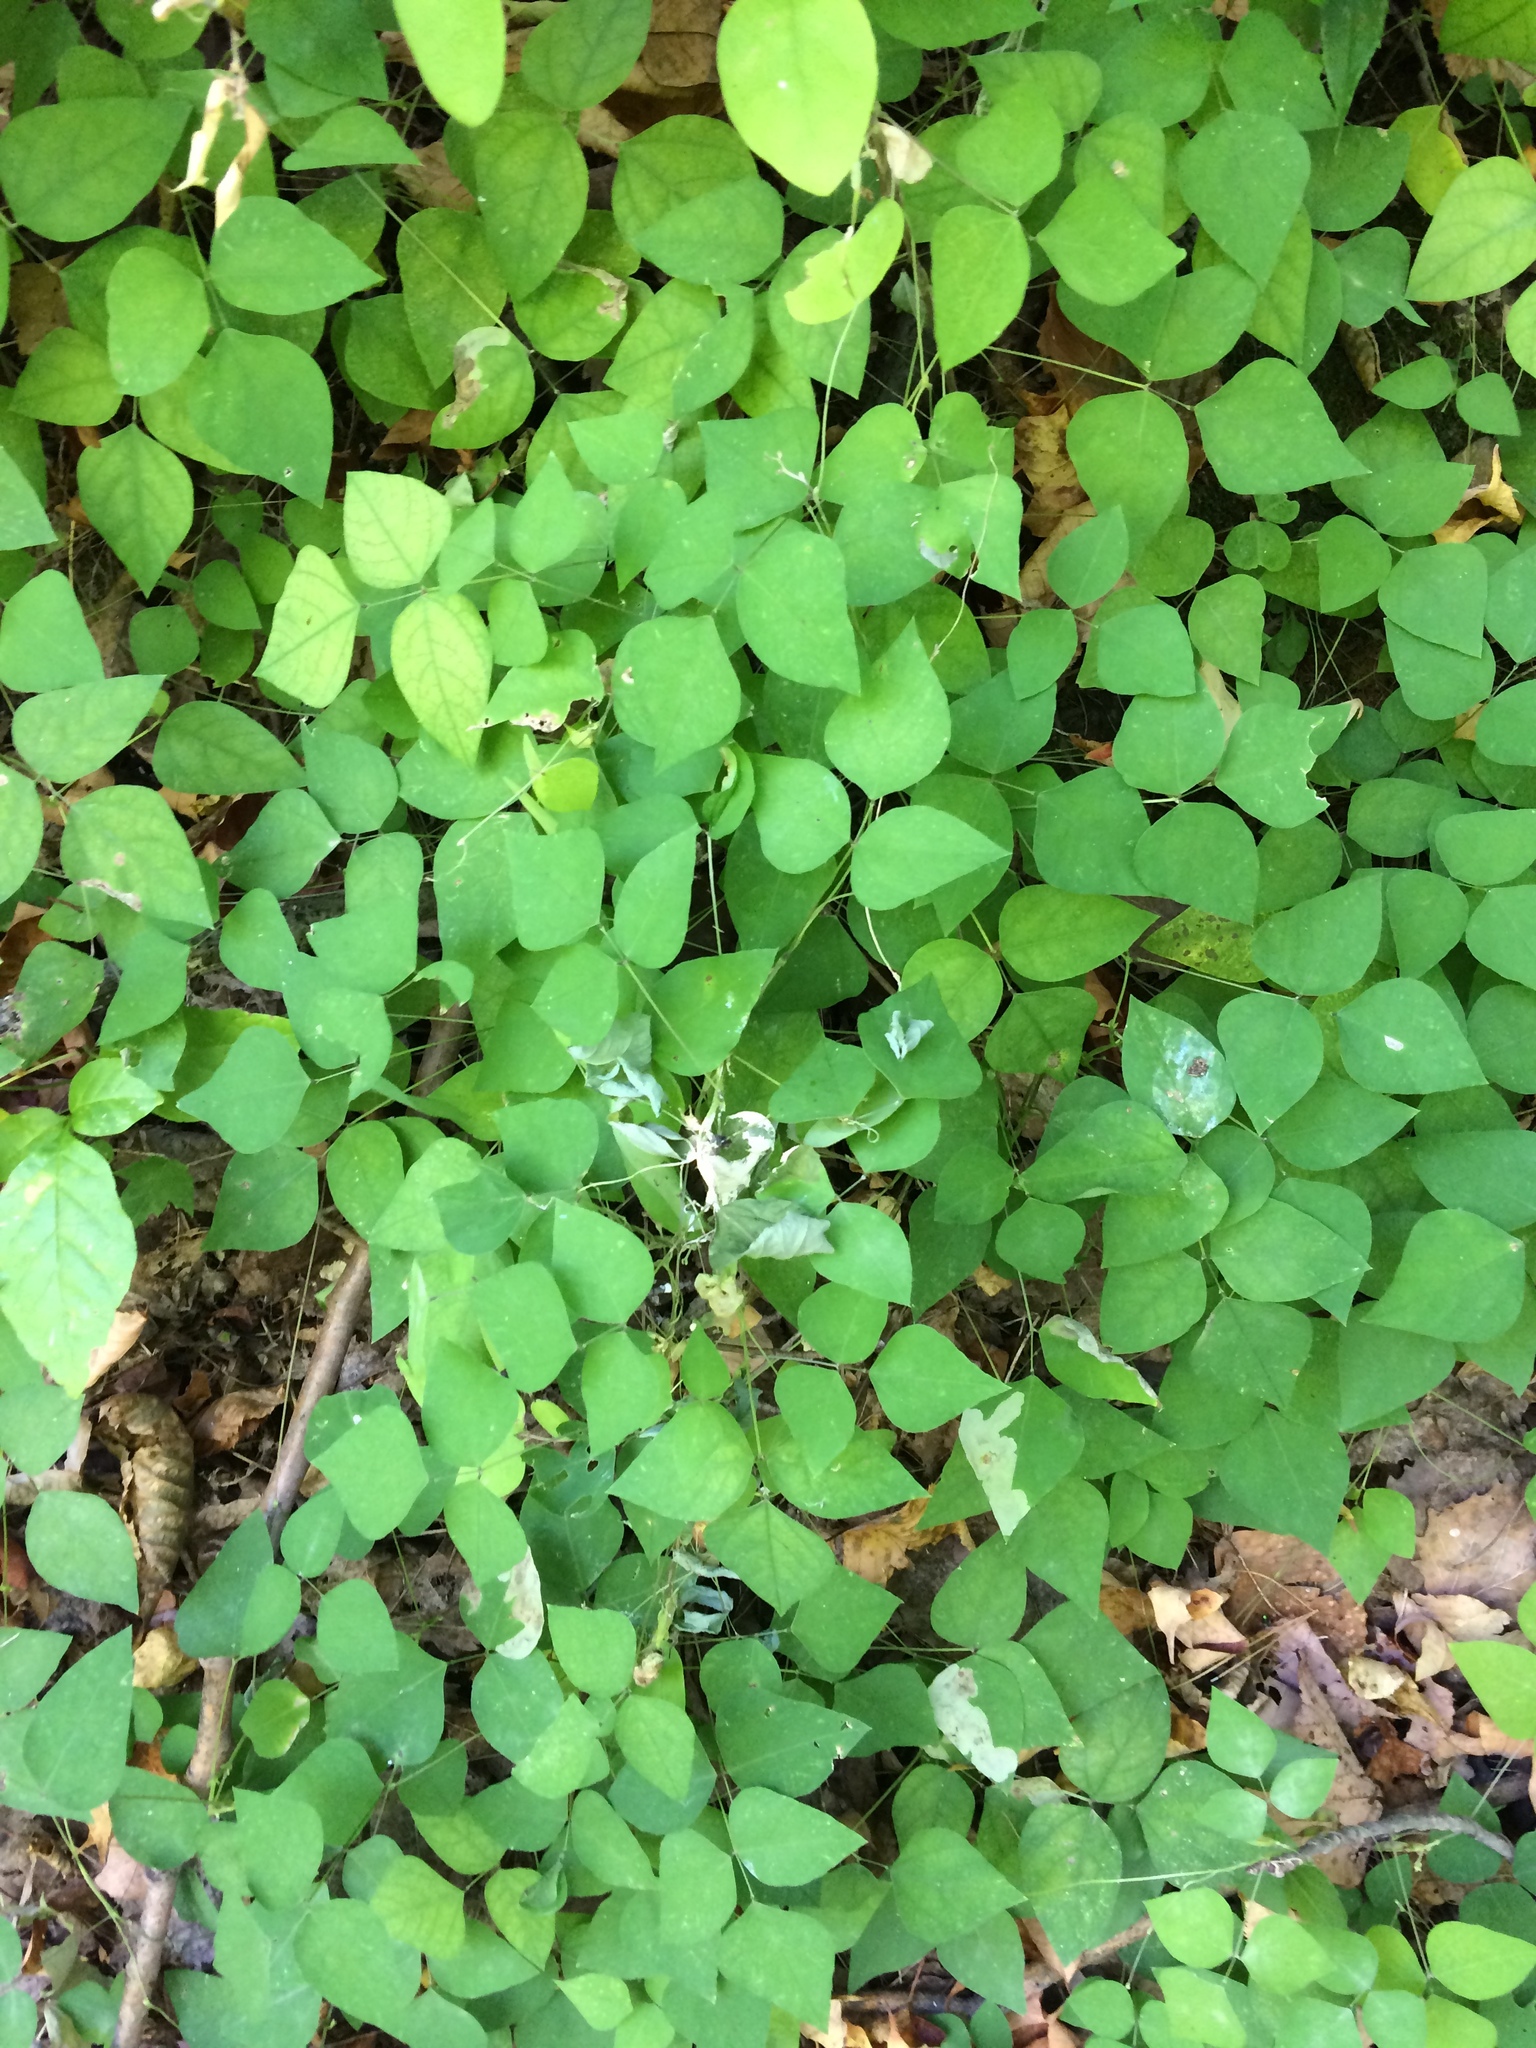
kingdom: Plantae
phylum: Tracheophyta
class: Magnoliopsida
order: Fabales
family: Fabaceae
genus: Amphicarpaea
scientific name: Amphicarpaea bracteata
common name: American hog peanut
